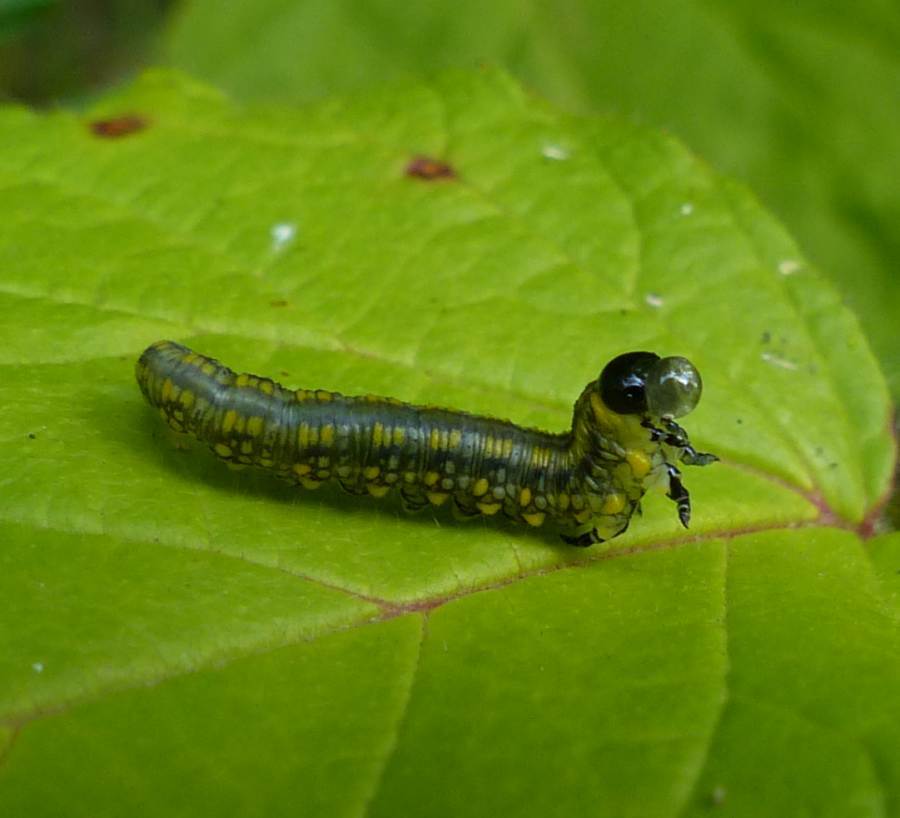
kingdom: Animalia
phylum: Arthropoda
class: Insecta
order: Hymenoptera
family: Diprionidae
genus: Diprion
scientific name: Diprion similis
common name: Pine sawfly
